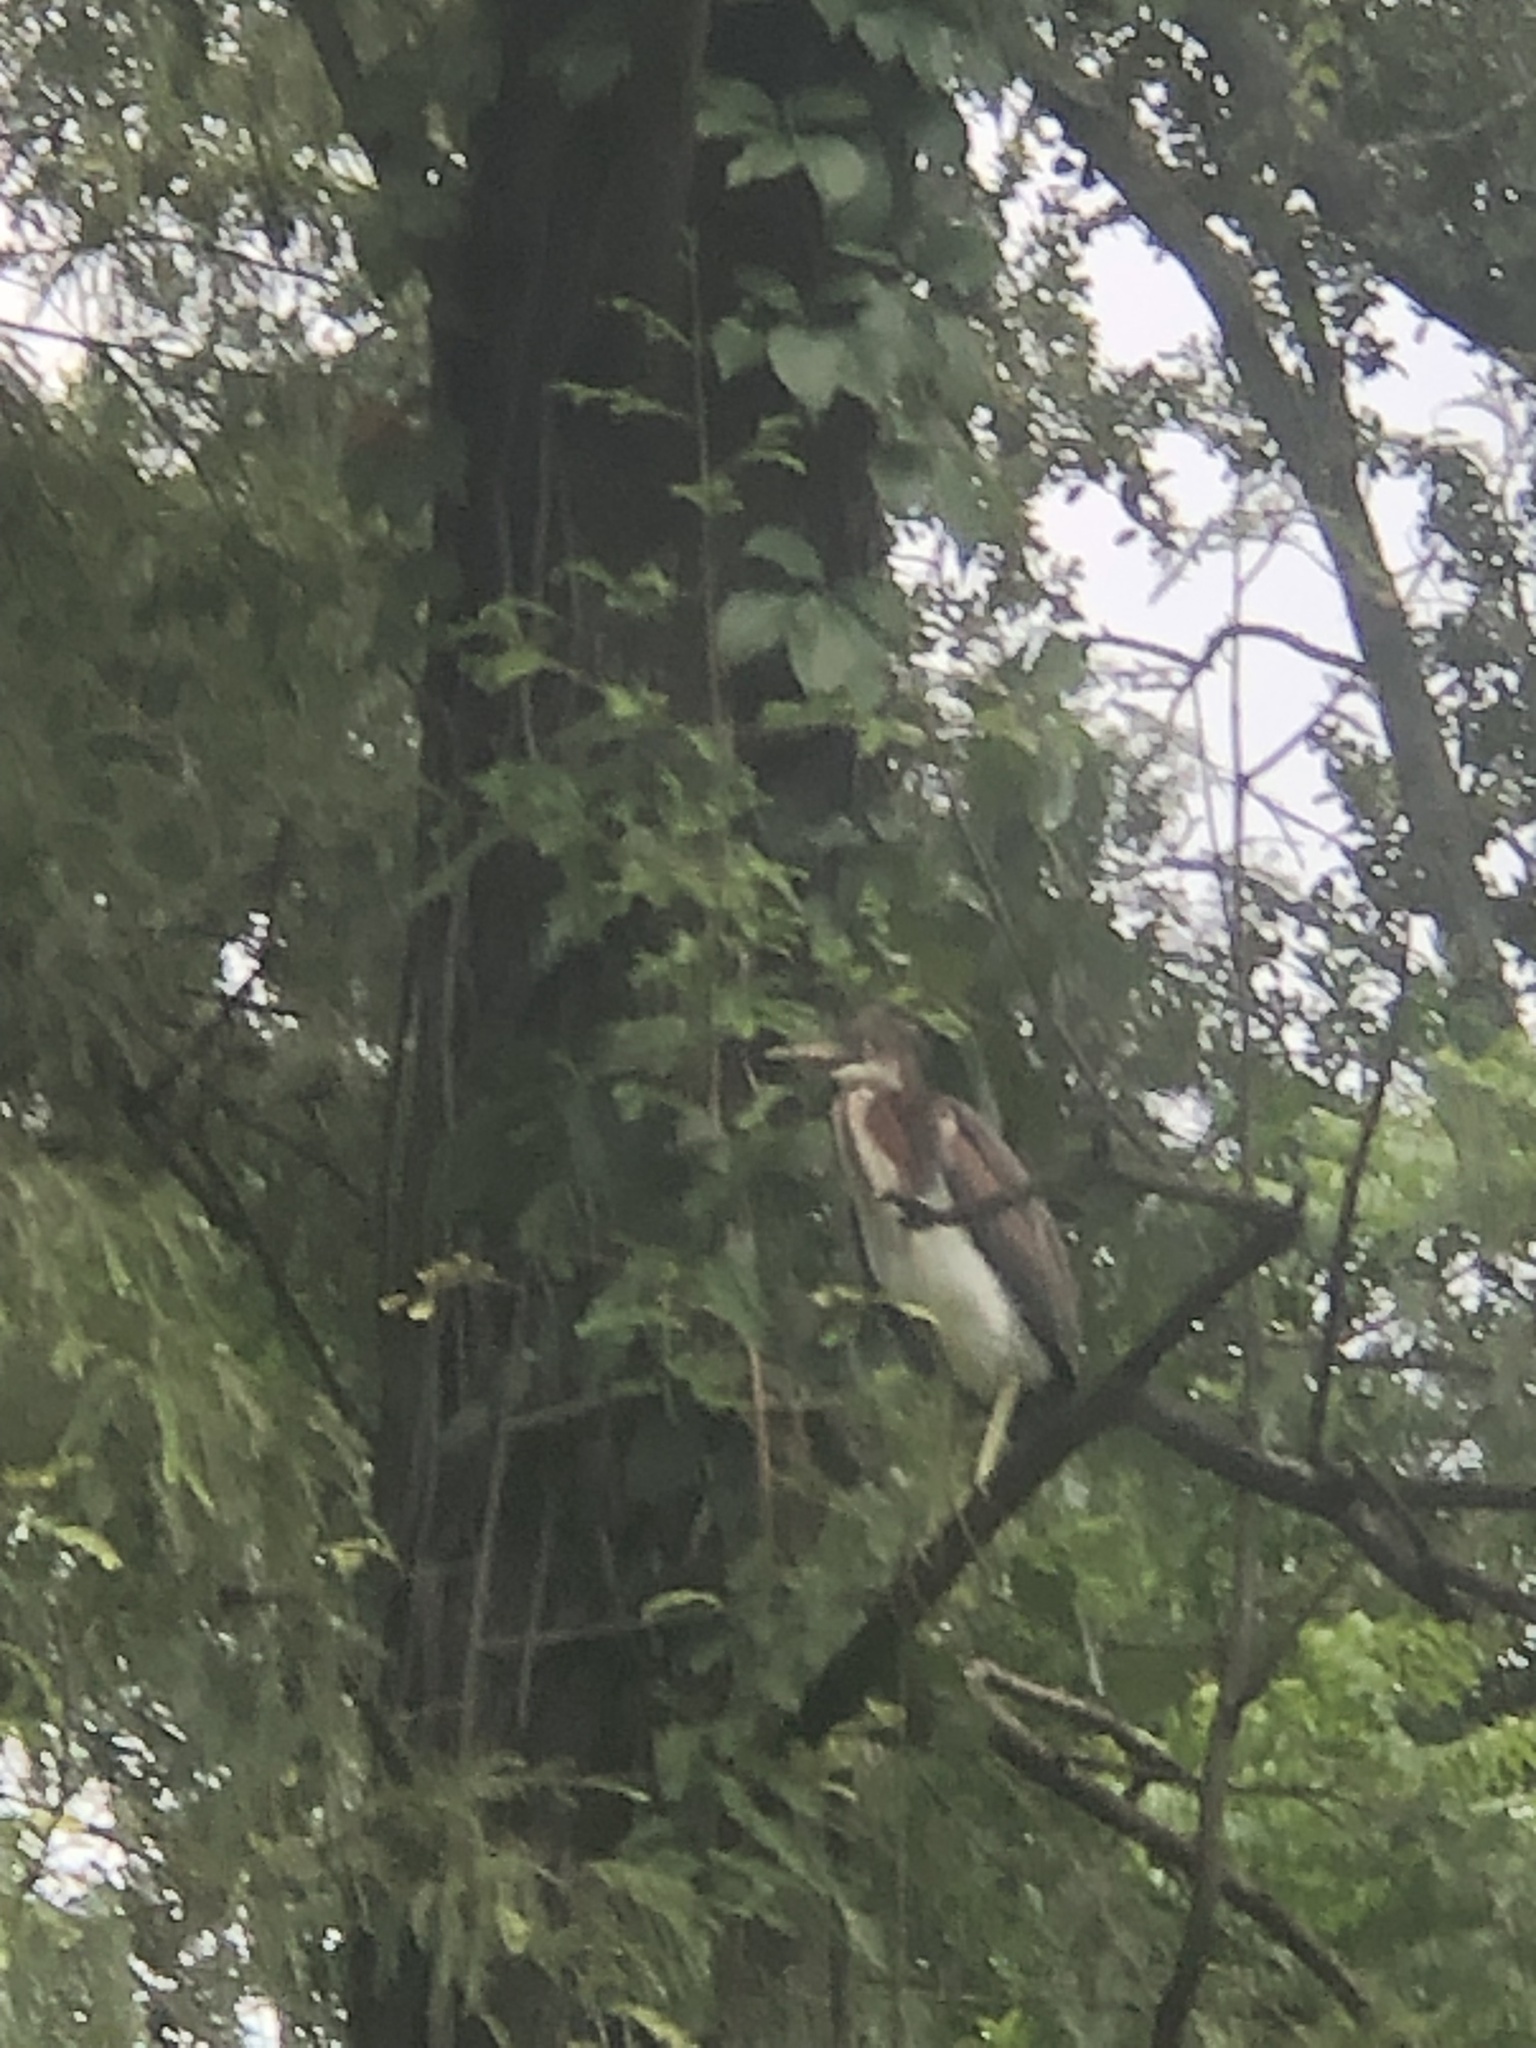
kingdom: Animalia
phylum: Chordata
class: Aves
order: Pelecaniformes
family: Ardeidae
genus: Egretta
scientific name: Egretta tricolor
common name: Tricolored heron
